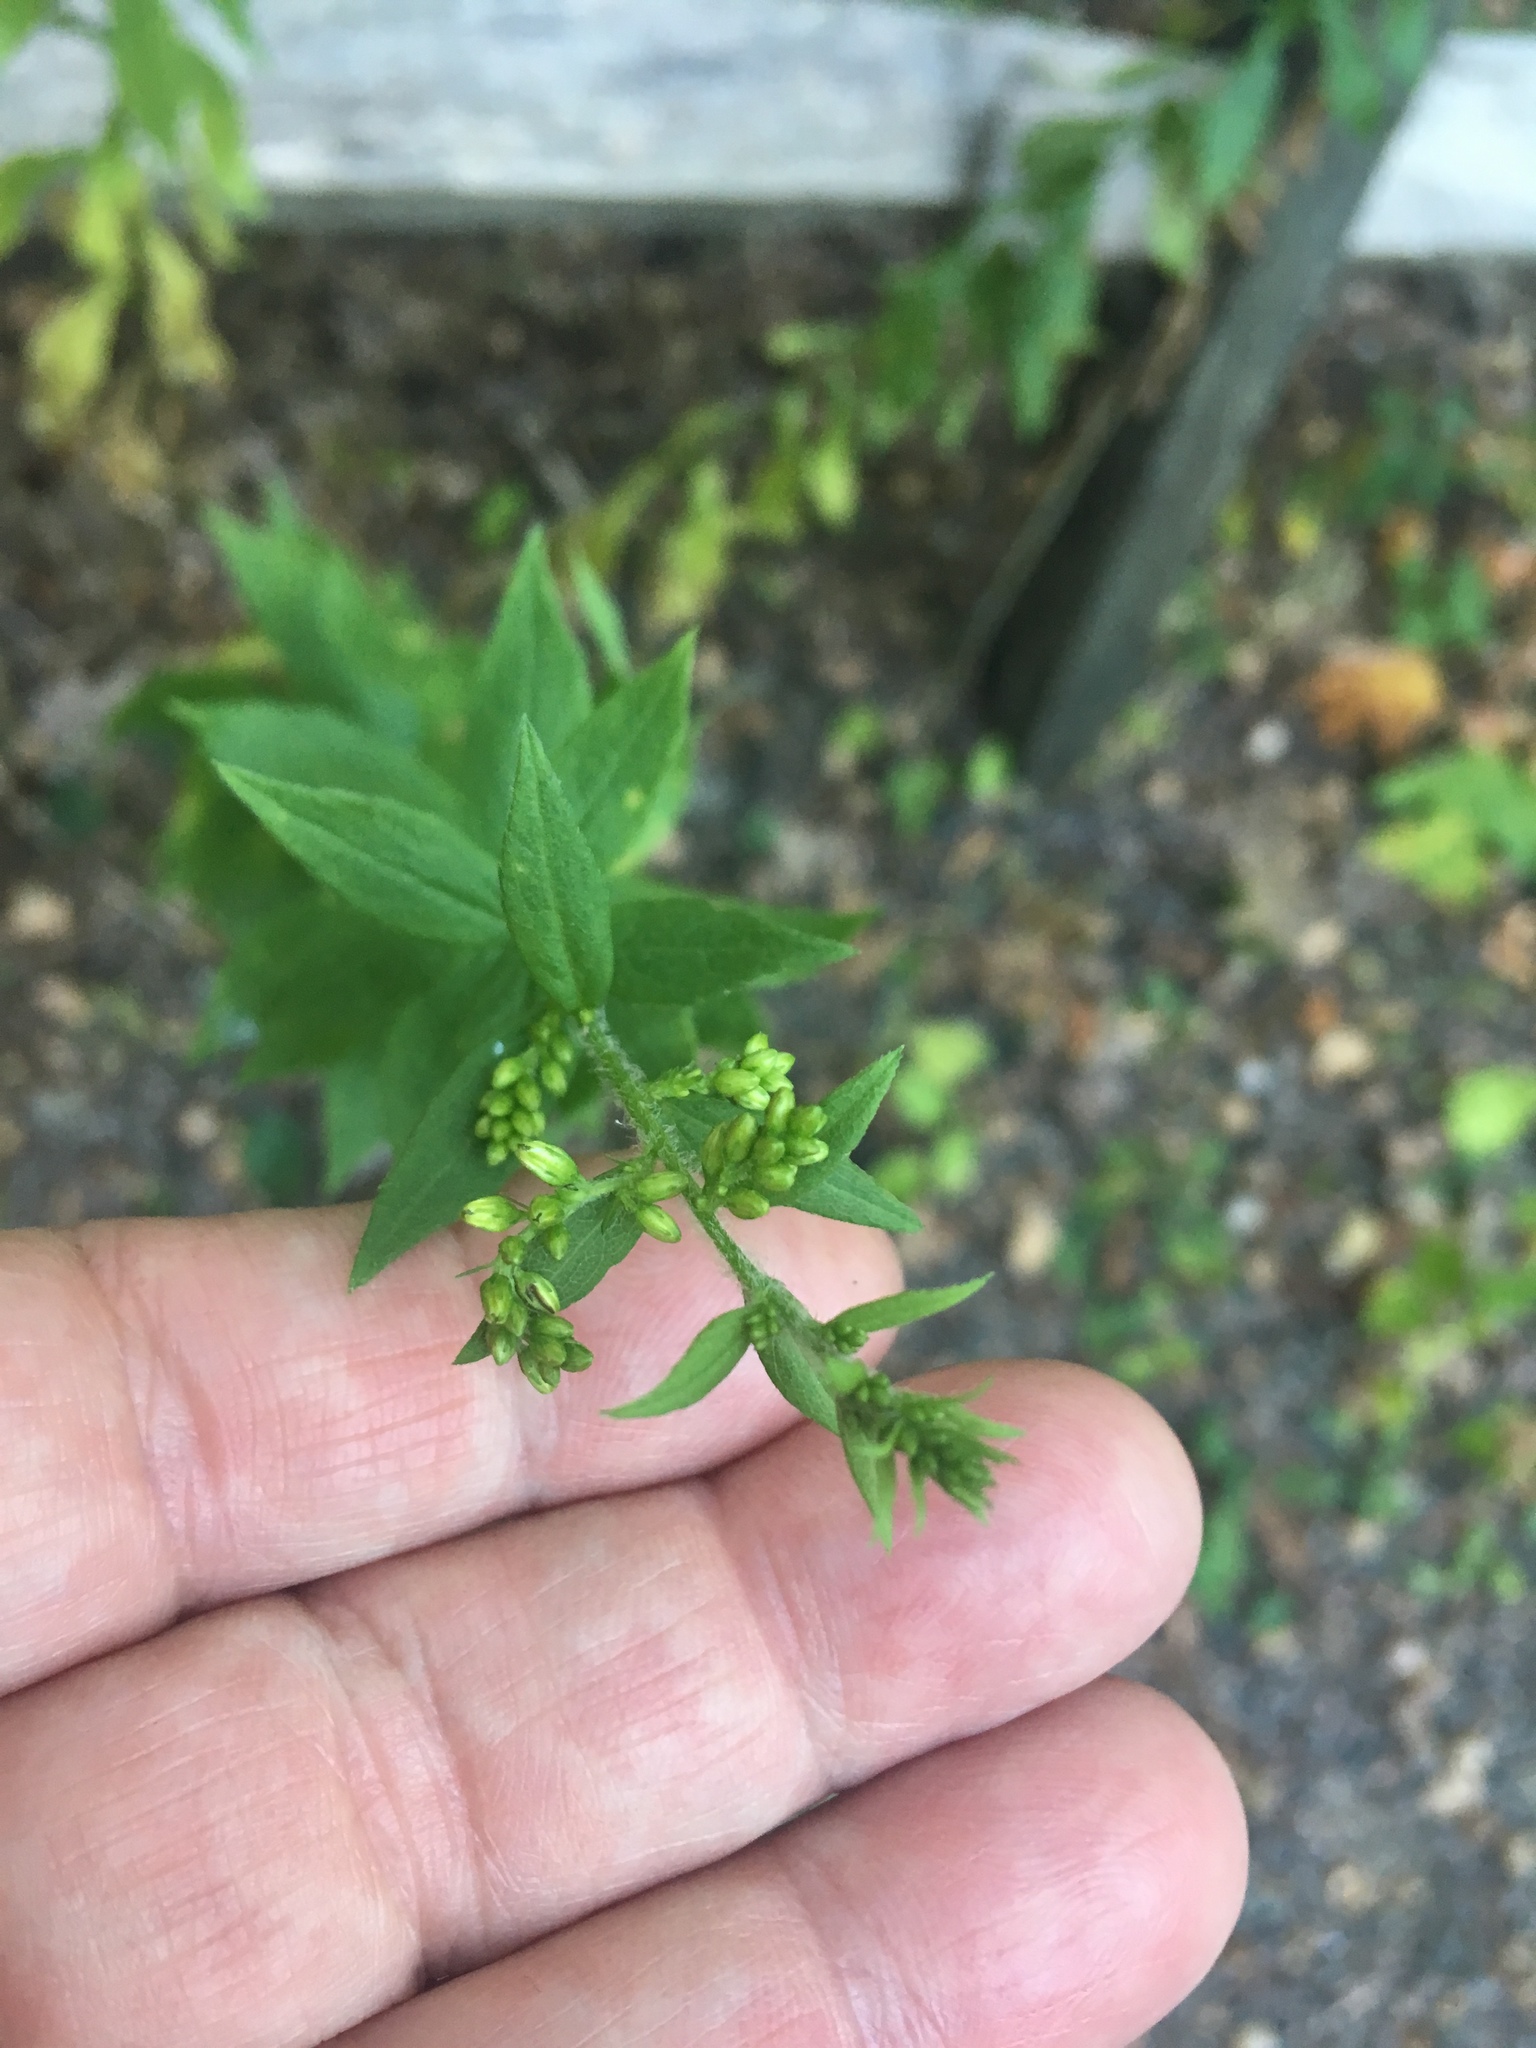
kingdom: Plantae
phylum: Tracheophyta
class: Magnoliopsida
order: Asterales
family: Asteraceae
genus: Solidago
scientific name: Solidago rugosa
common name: Rough-stemmed goldenrod
